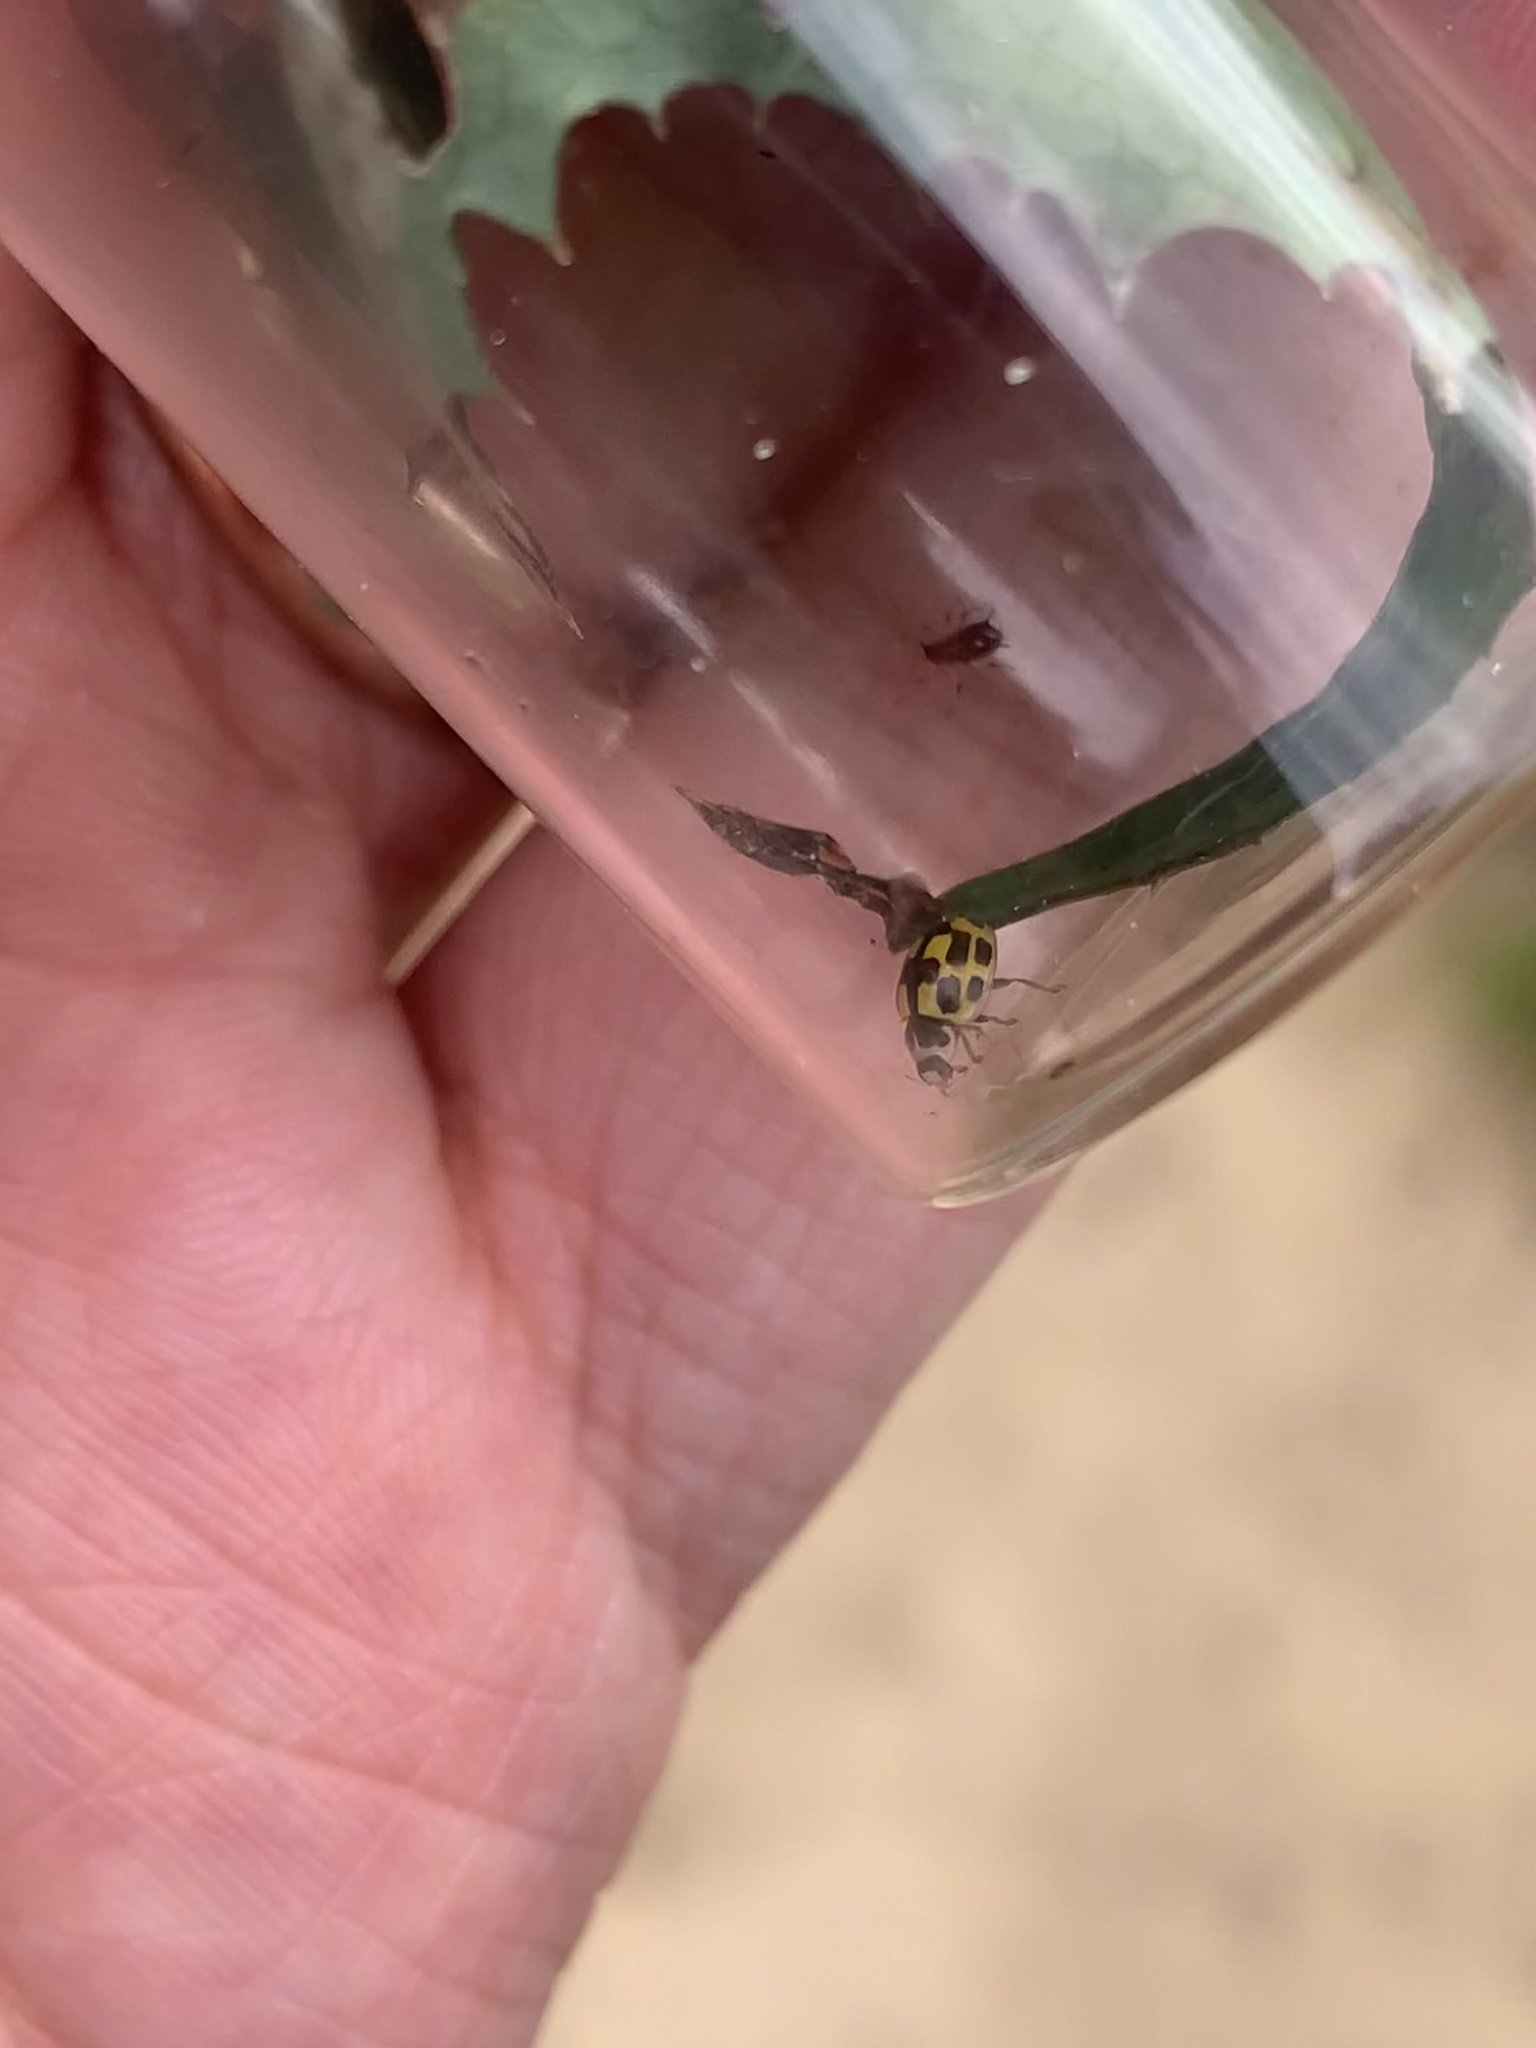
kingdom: Animalia
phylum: Arthropoda
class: Insecta
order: Coleoptera
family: Coccinellidae
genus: Propylaea
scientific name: Propylaea quatuordecimpunctata
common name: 14-spotted ladybird beetle
